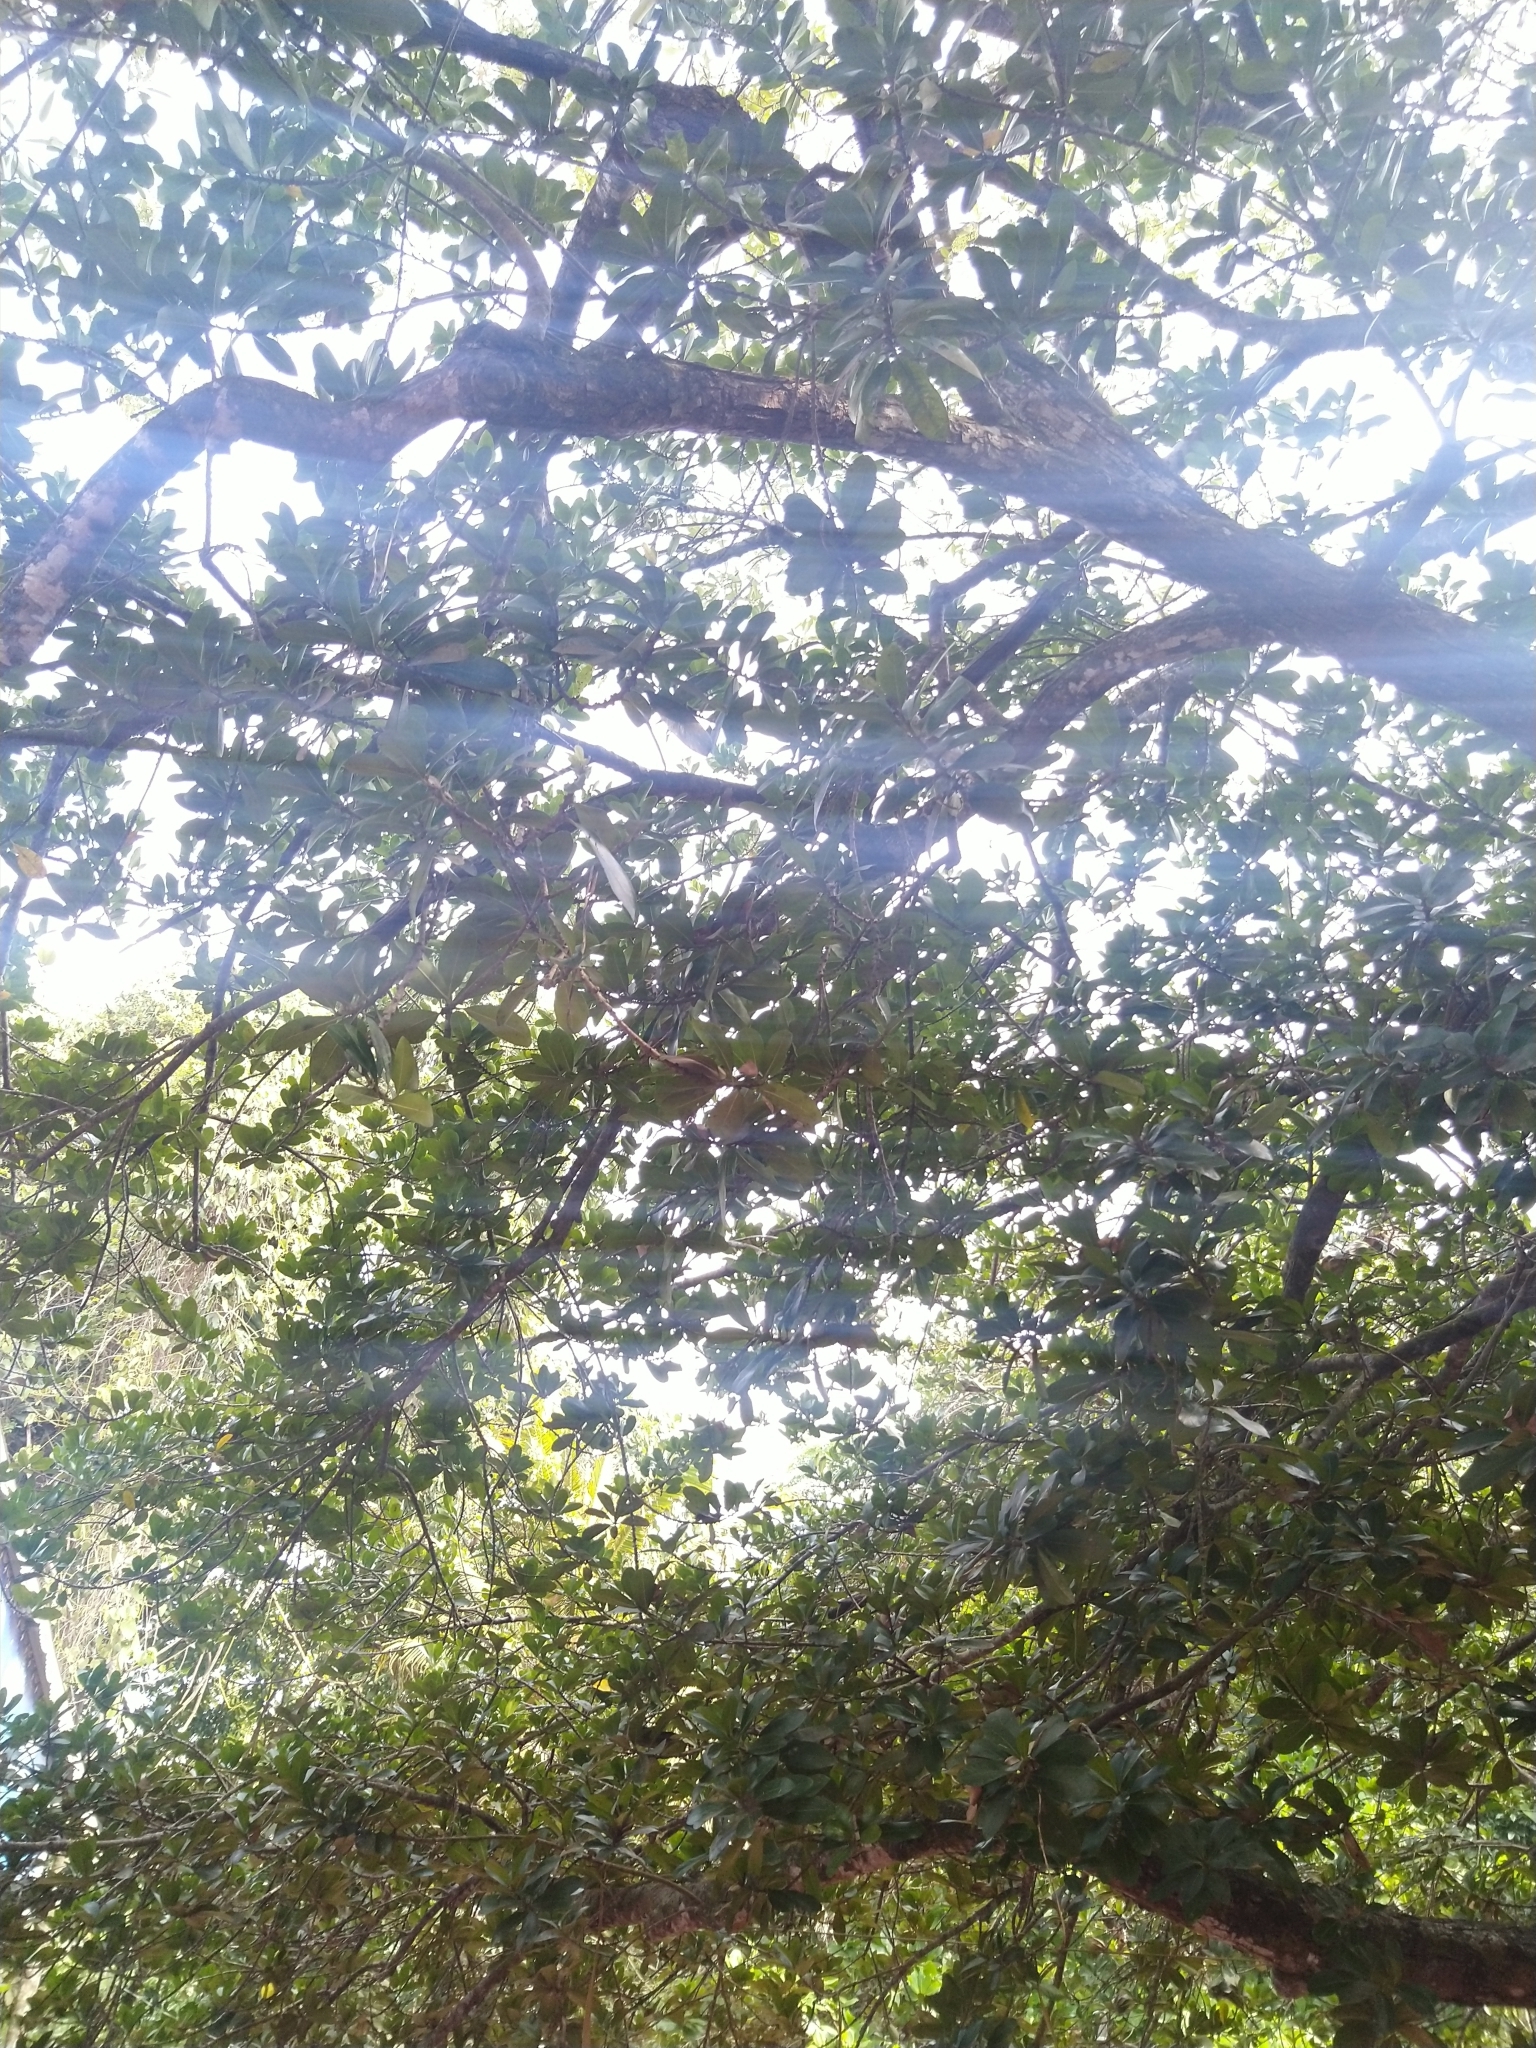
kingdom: Plantae
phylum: Tracheophyta
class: Magnoliopsida
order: Ericales
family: Sapotaceae
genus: Madhuca
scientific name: Madhuca diplostemon
